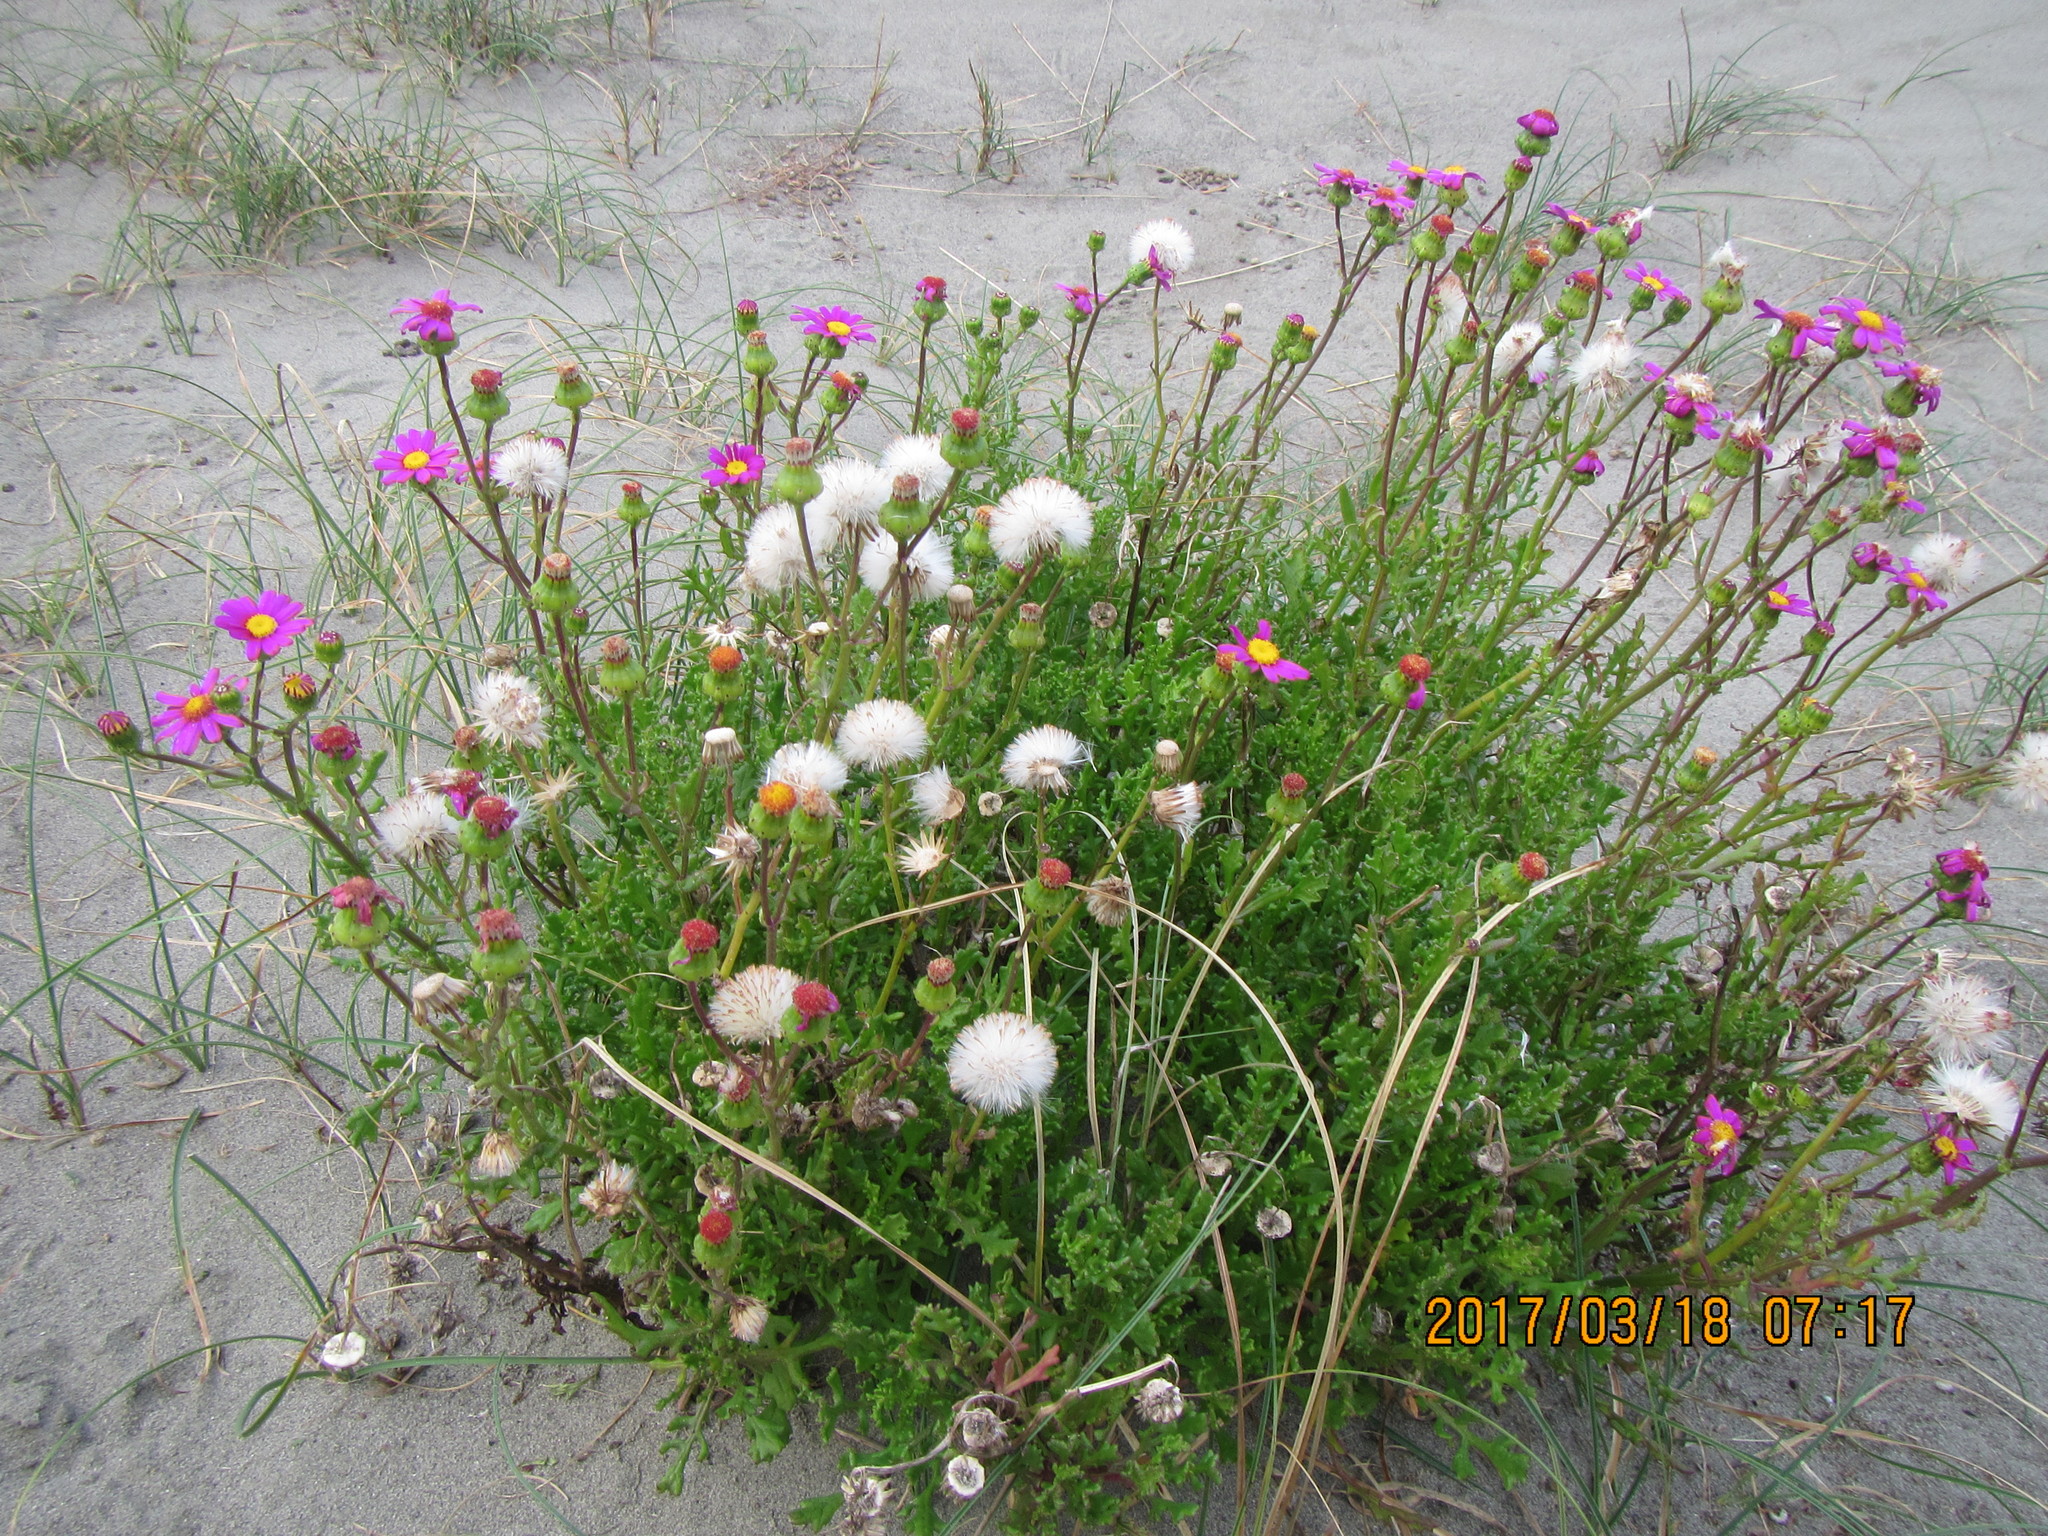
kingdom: Plantae
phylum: Tracheophyta
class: Magnoliopsida
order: Asterales
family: Asteraceae
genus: Senecio
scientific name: Senecio elegans
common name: Purple groundsel
